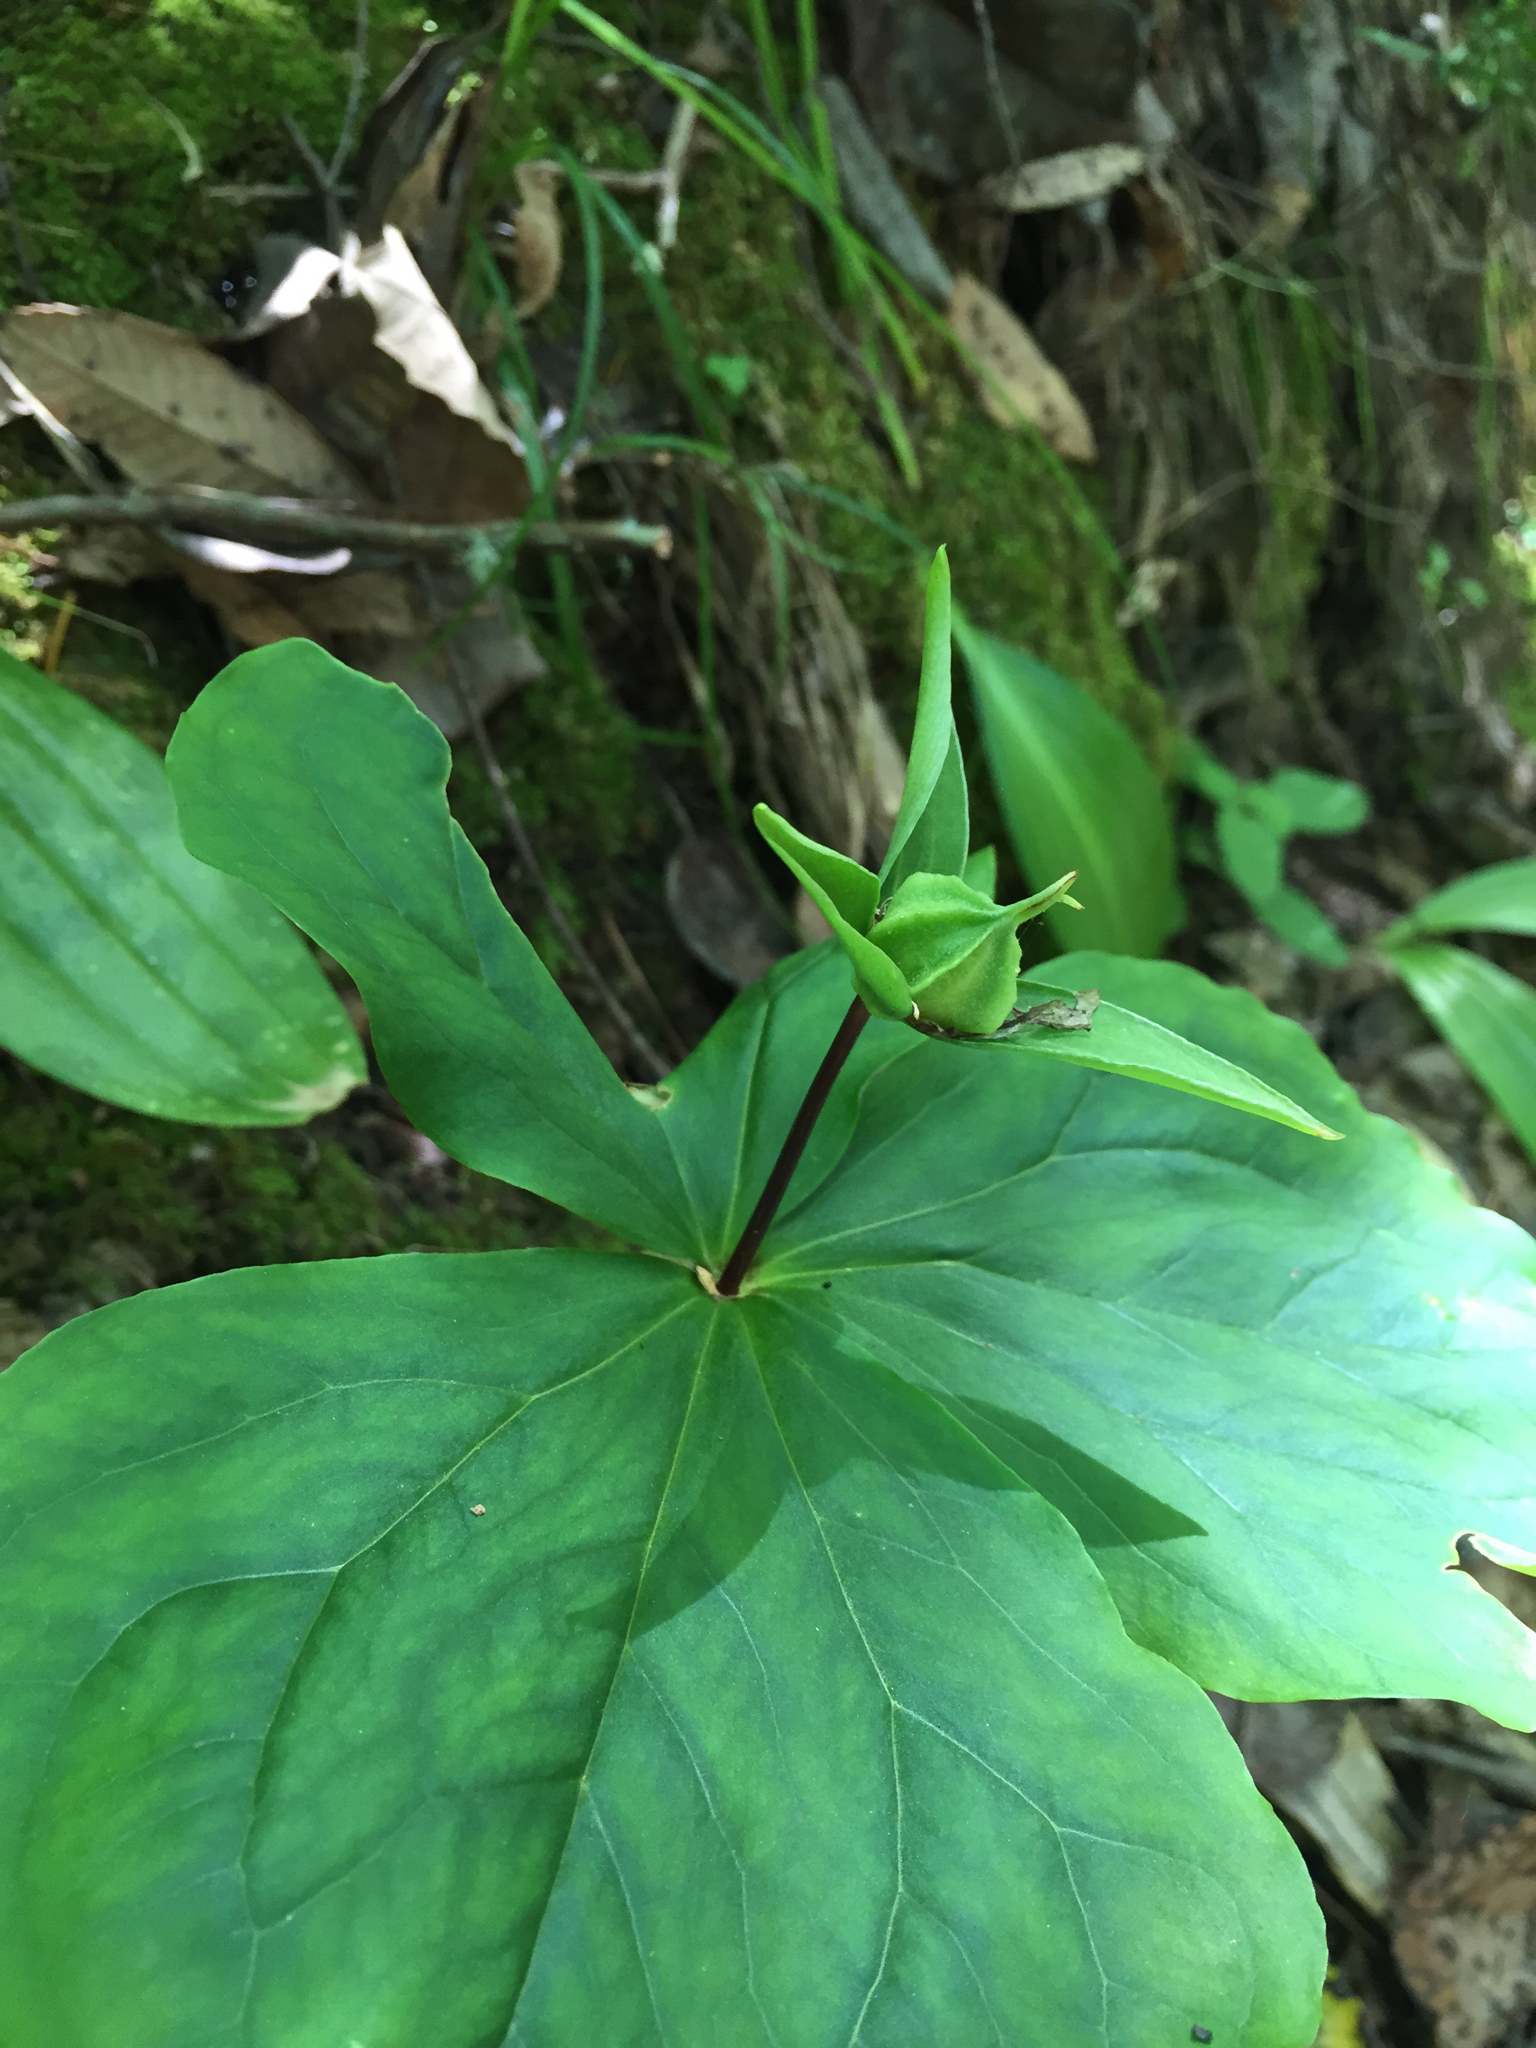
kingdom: Plantae
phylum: Tracheophyta
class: Liliopsida
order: Liliales
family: Melanthiaceae
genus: Trillium
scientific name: Trillium ovatum
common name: Pacific trillium
